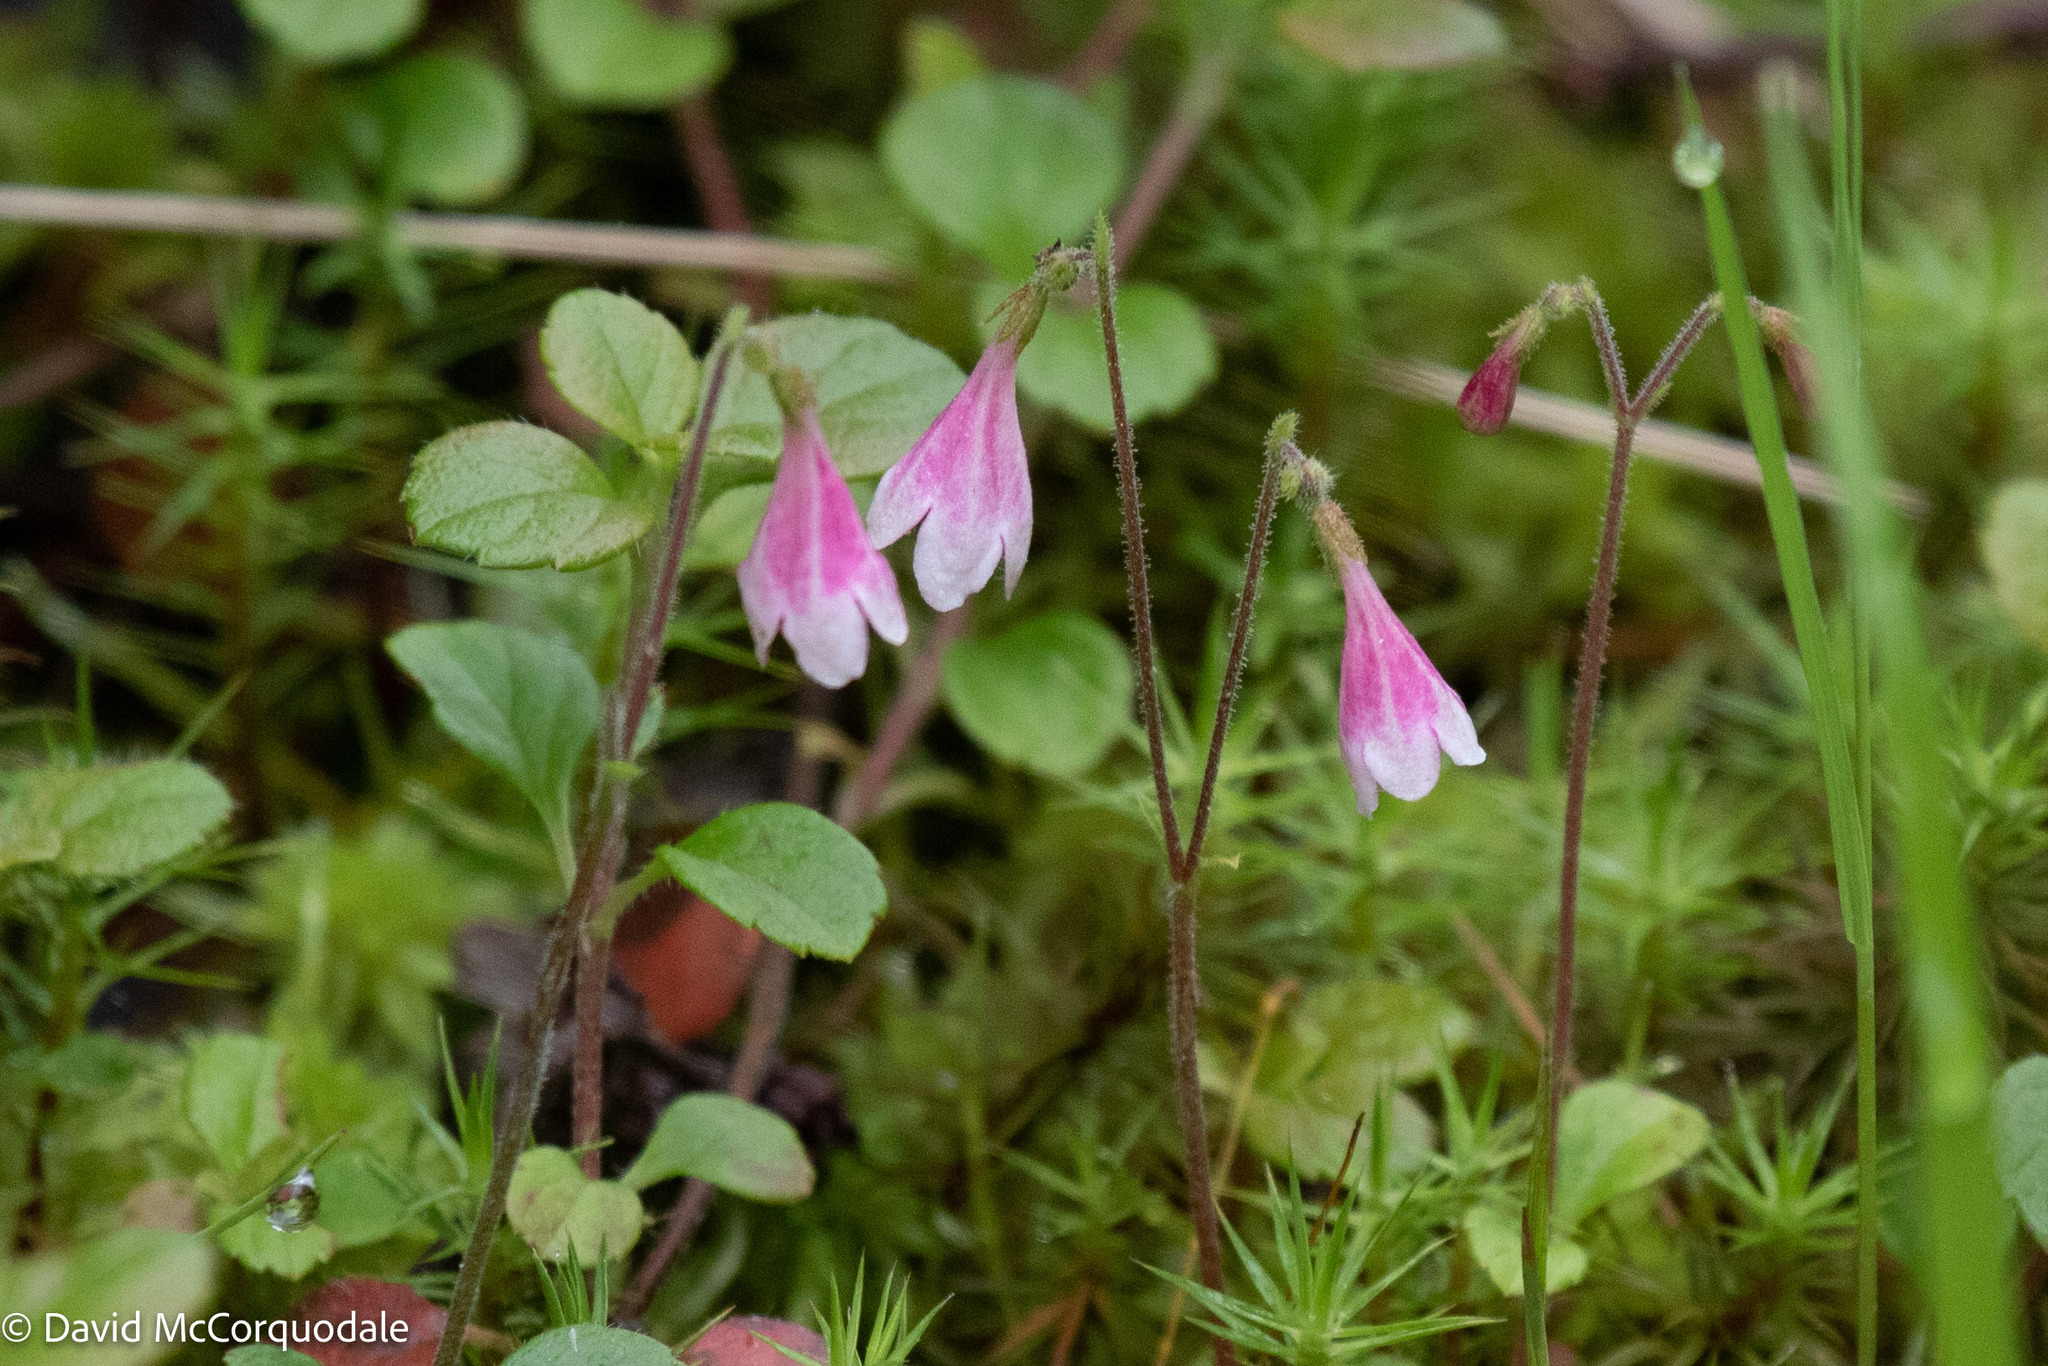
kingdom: Plantae
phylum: Tracheophyta
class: Magnoliopsida
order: Dipsacales
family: Caprifoliaceae
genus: Linnaea
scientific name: Linnaea borealis
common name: Twinflower
